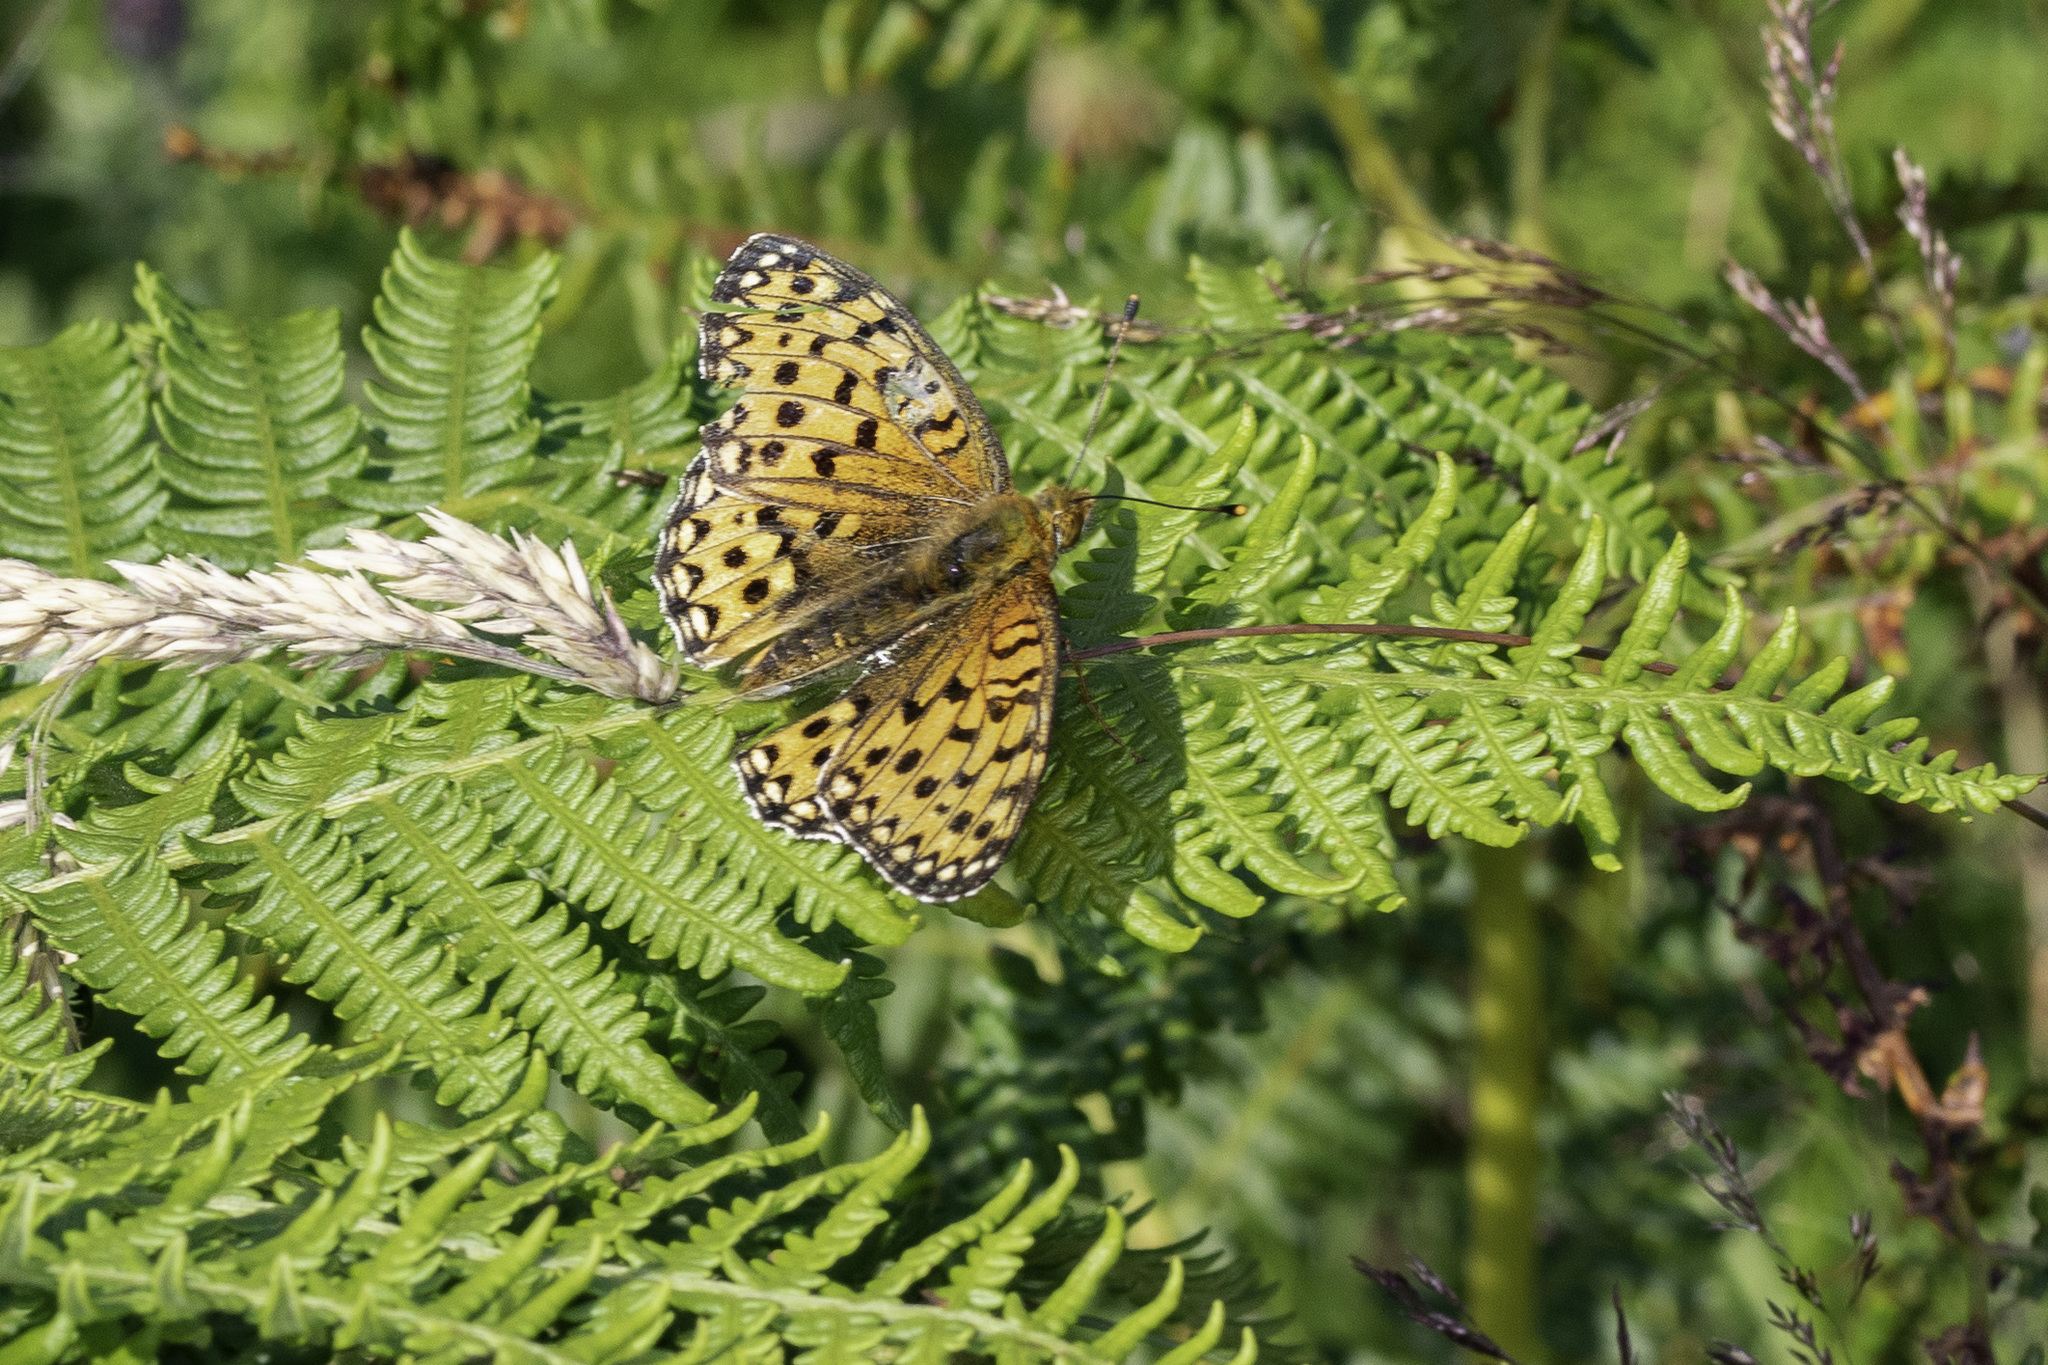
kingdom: Animalia
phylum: Arthropoda
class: Insecta
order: Lepidoptera
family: Nymphalidae
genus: Speyeria
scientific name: Speyeria aglaja
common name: Dark green fritillary
